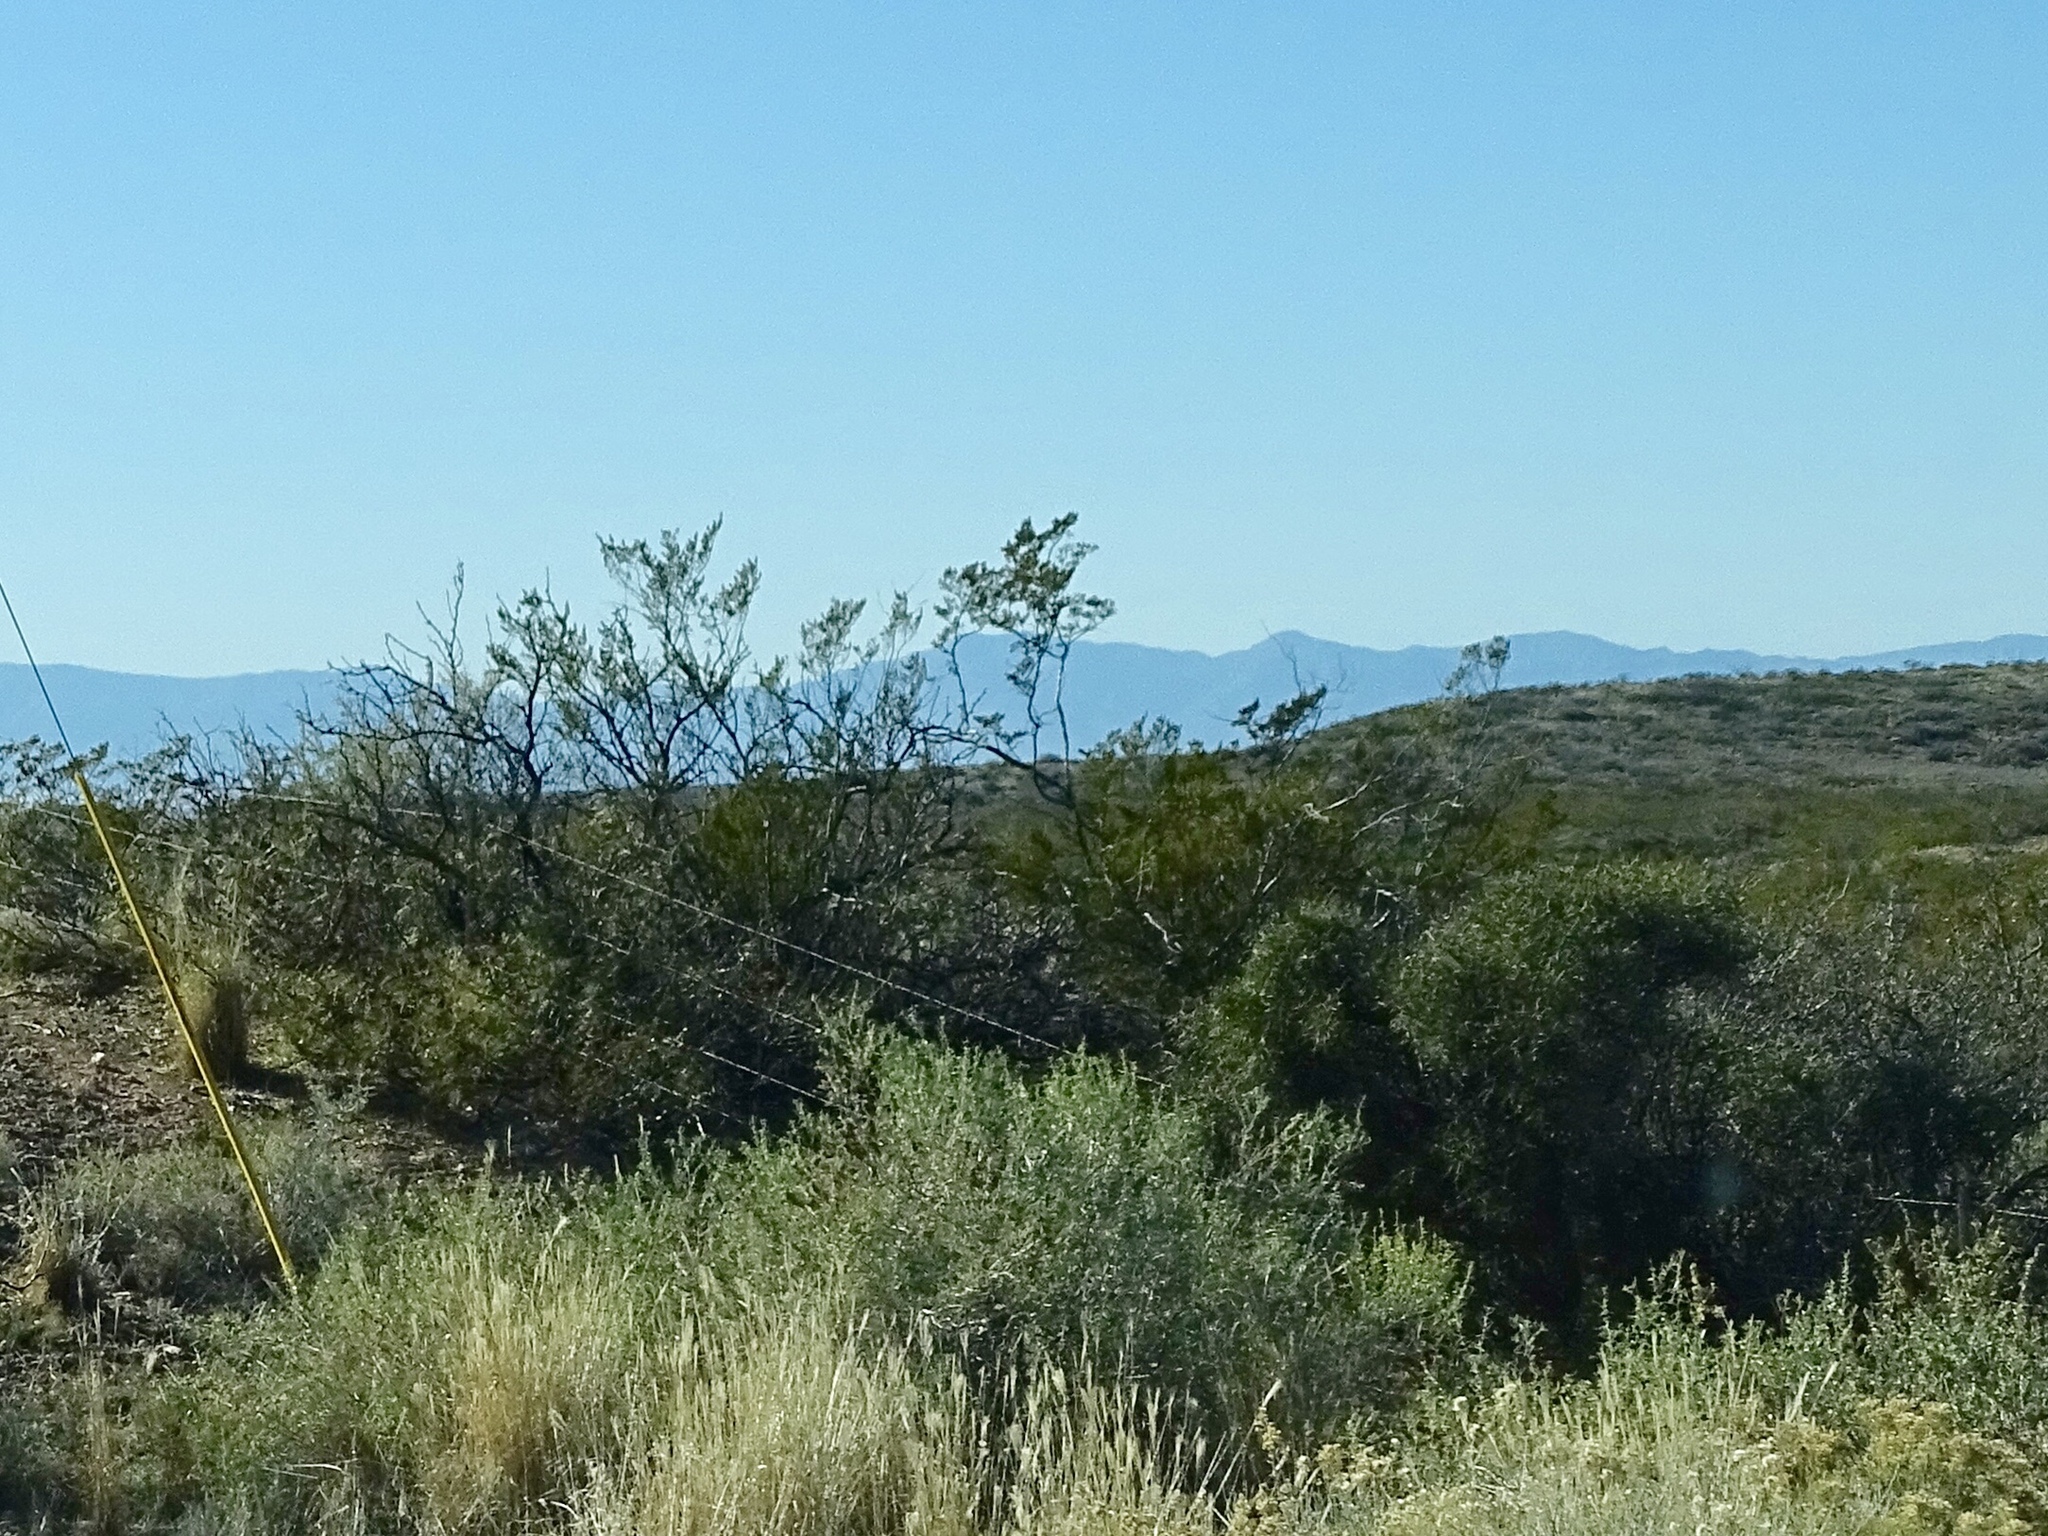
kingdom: Plantae
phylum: Tracheophyta
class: Magnoliopsida
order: Zygophyllales
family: Zygophyllaceae
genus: Larrea
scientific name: Larrea tridentata
